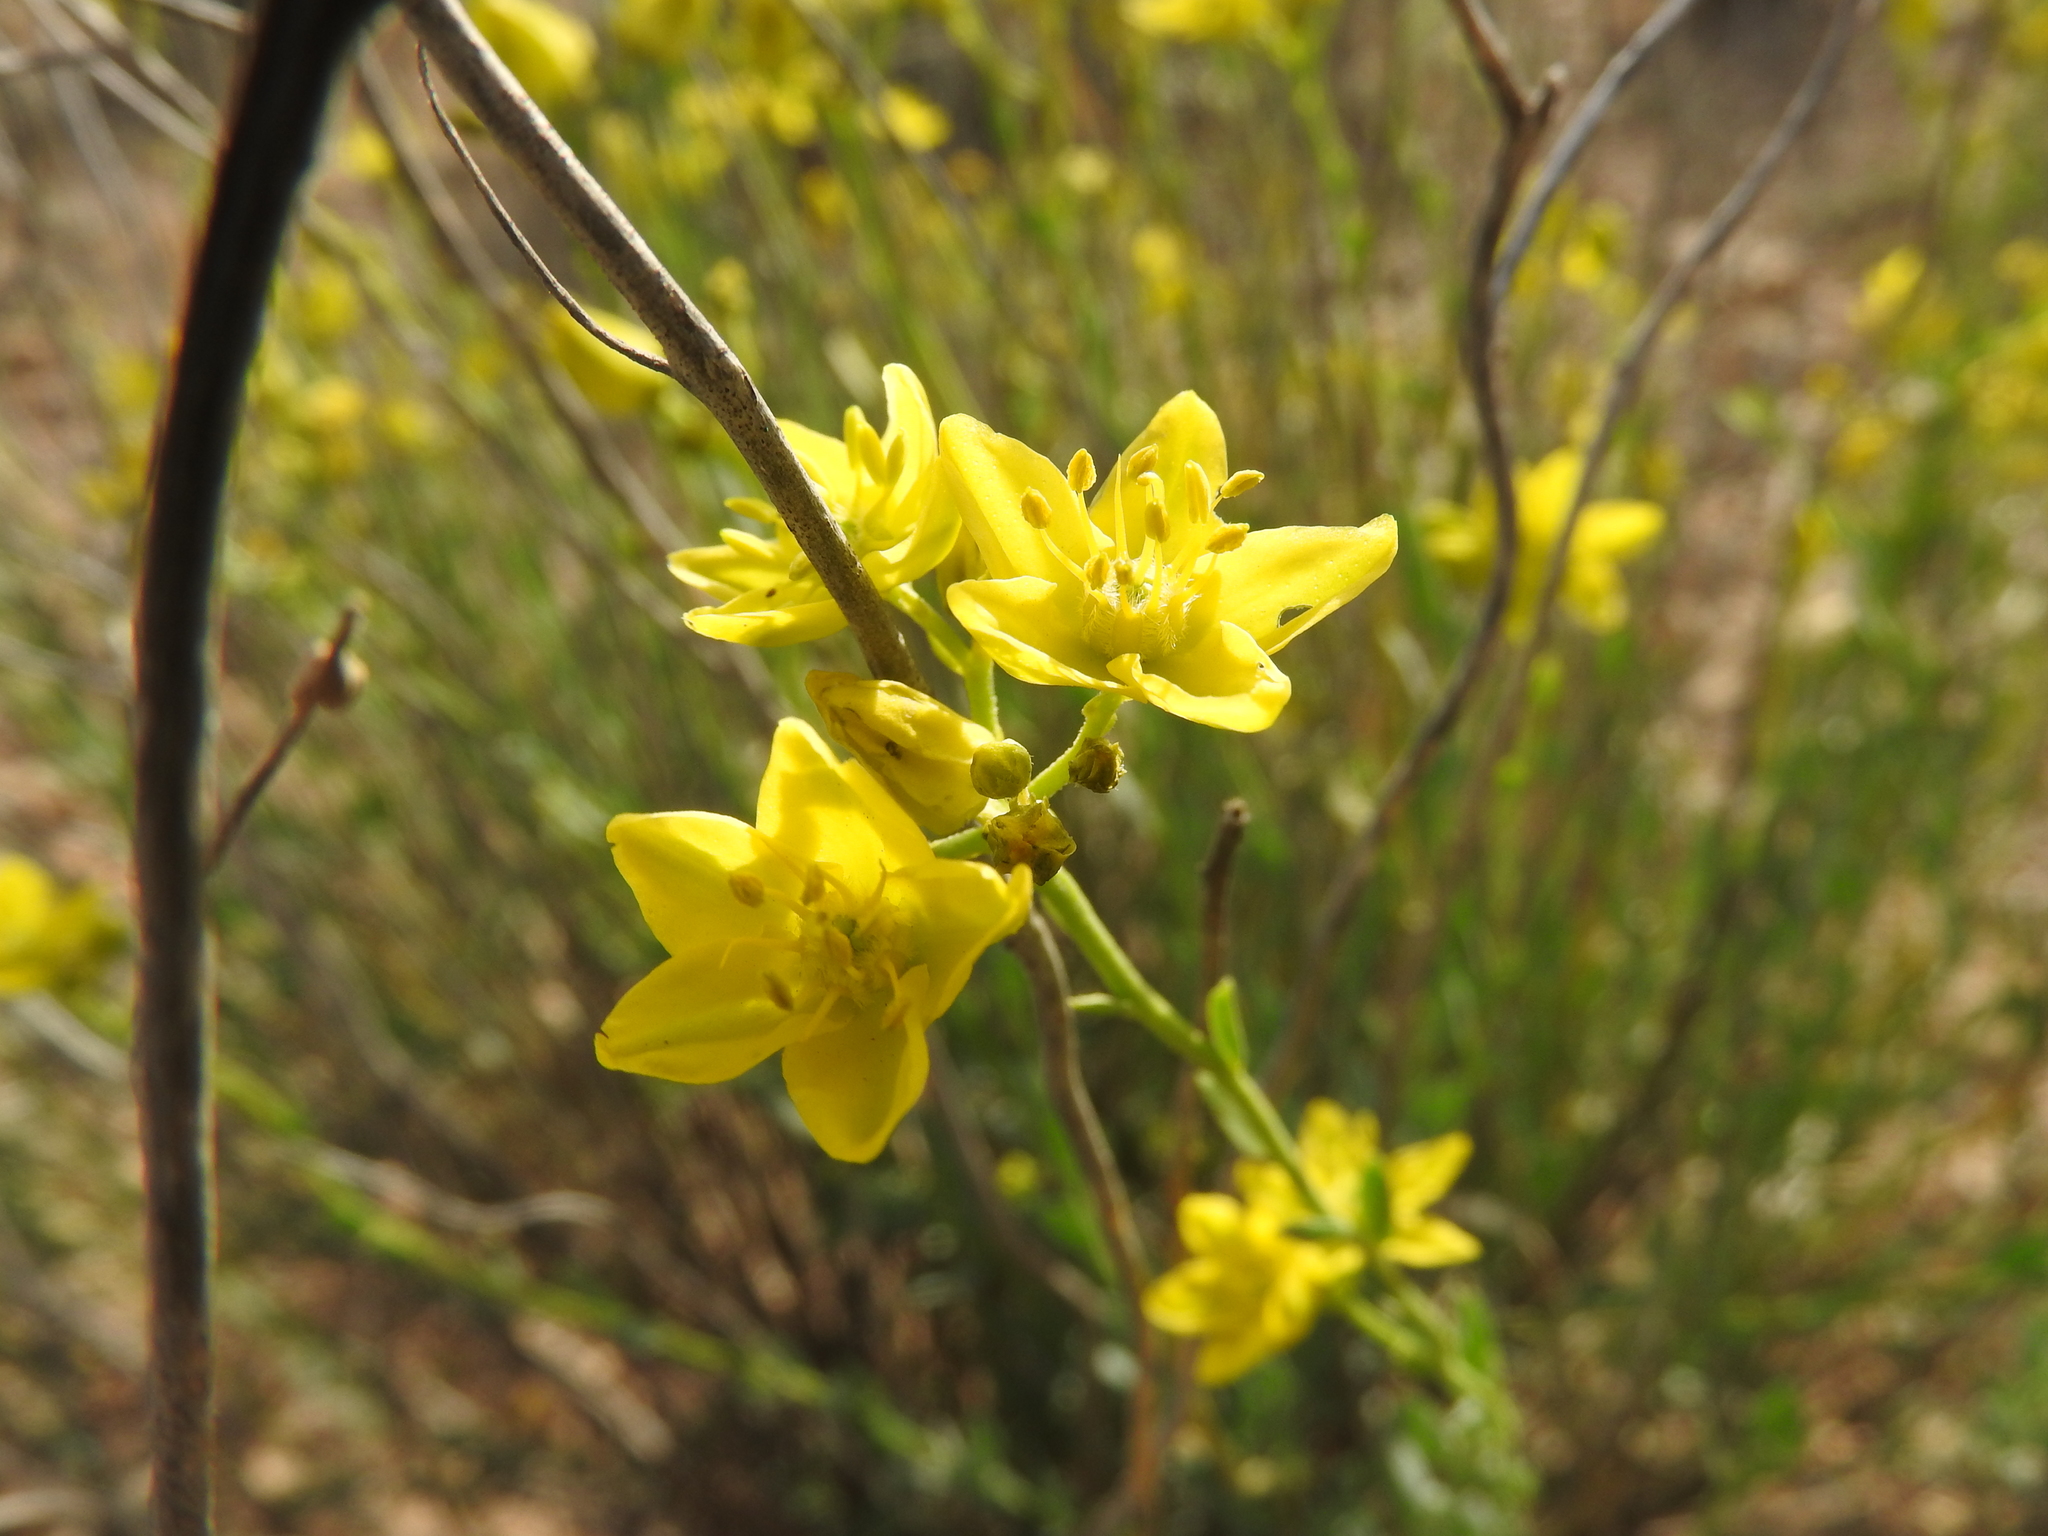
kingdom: Plantae
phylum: Tracheophyta
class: Magnoliopsida
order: Sapindales
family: Rutaceae
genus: Haplophyllum
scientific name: Haplophyllum linifolium
